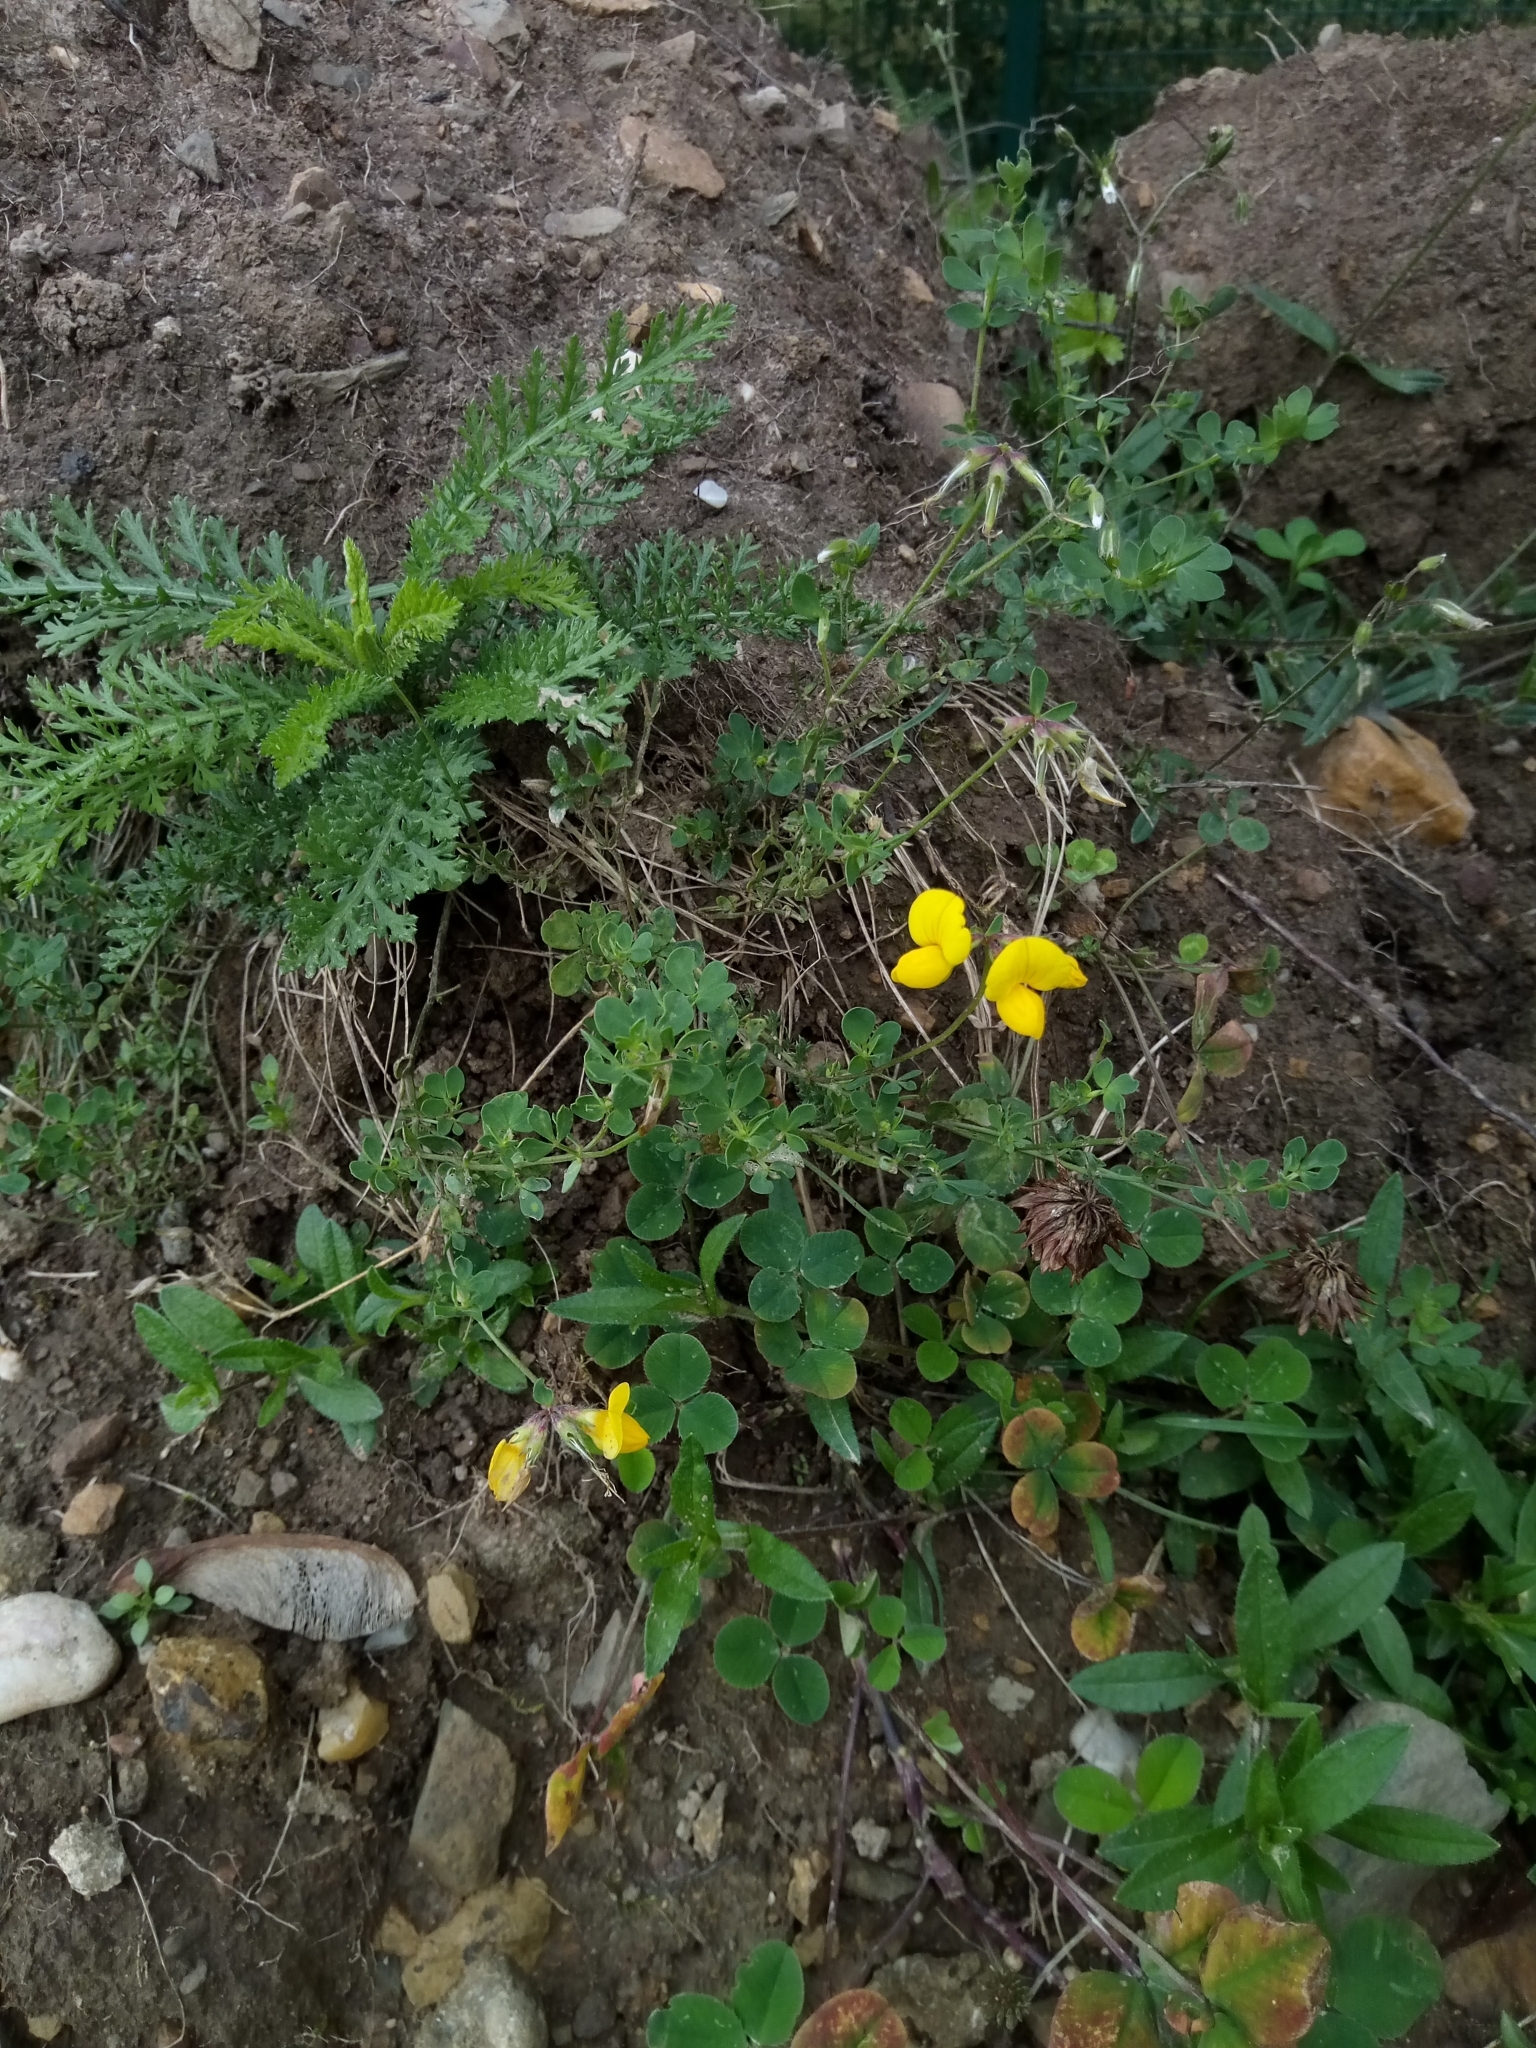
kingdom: Plantae
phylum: Tracheophyta
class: Magnoliopsida
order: Fabales
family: Fabaceae
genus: Lotus
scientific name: Lotus corniculatus
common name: Common bird's-foot-trefoil
